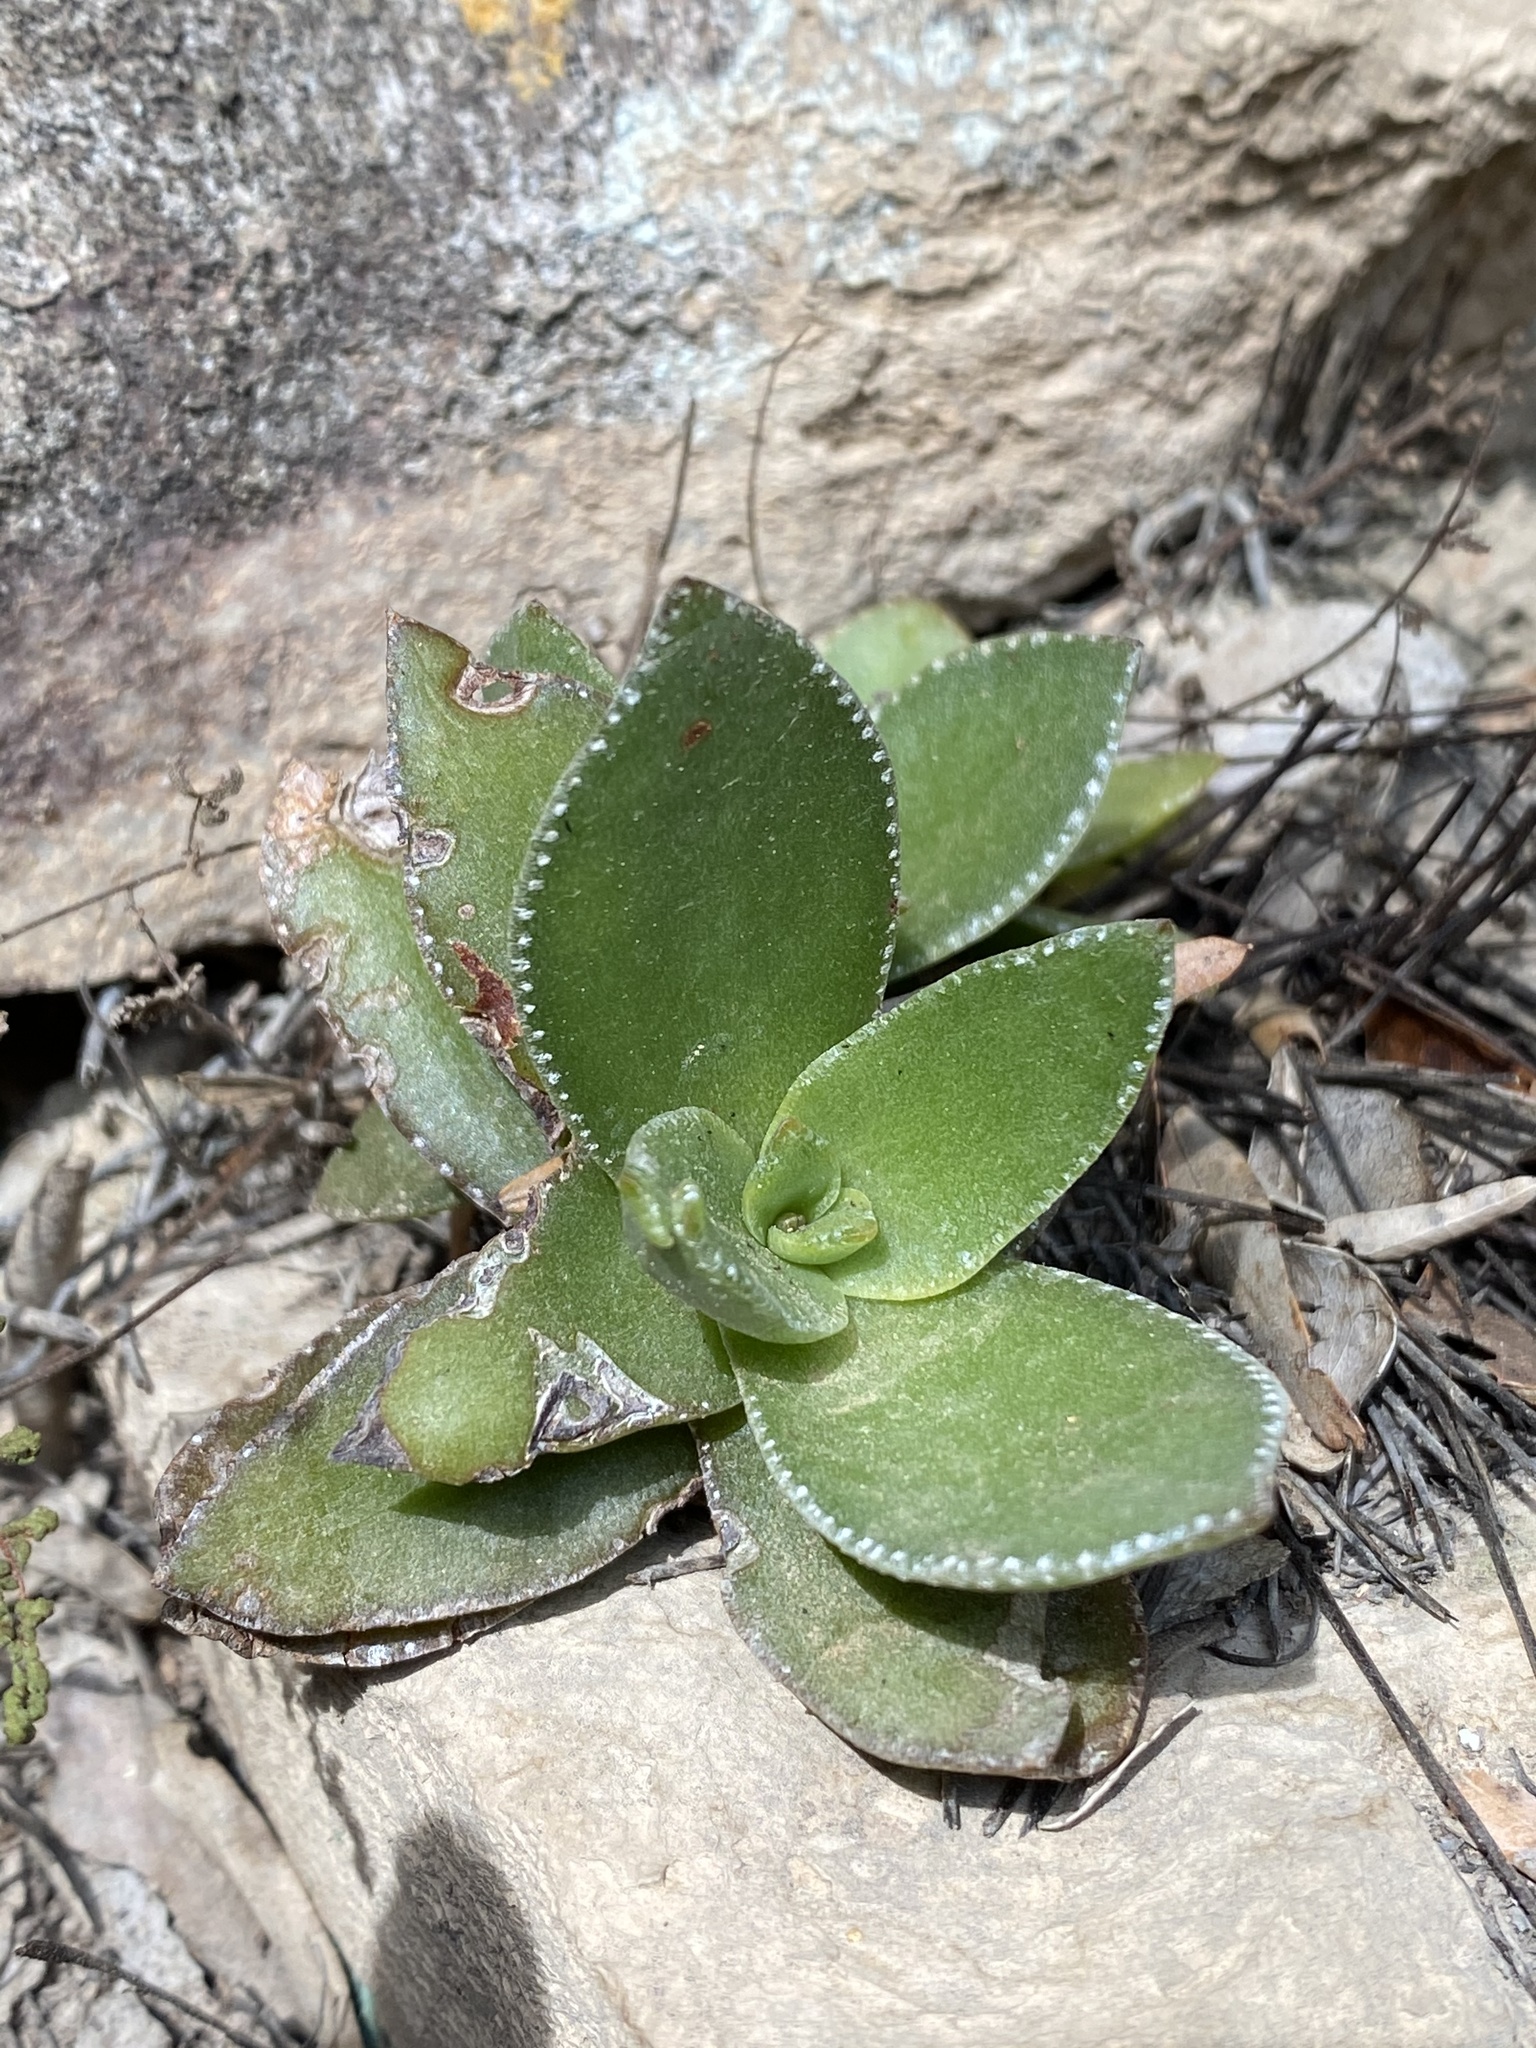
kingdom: Plantae
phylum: Tracheophyta
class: Magnoliopsida
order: Saxifragales
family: Crassulaceae
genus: Crassula
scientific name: Crassula lactea
